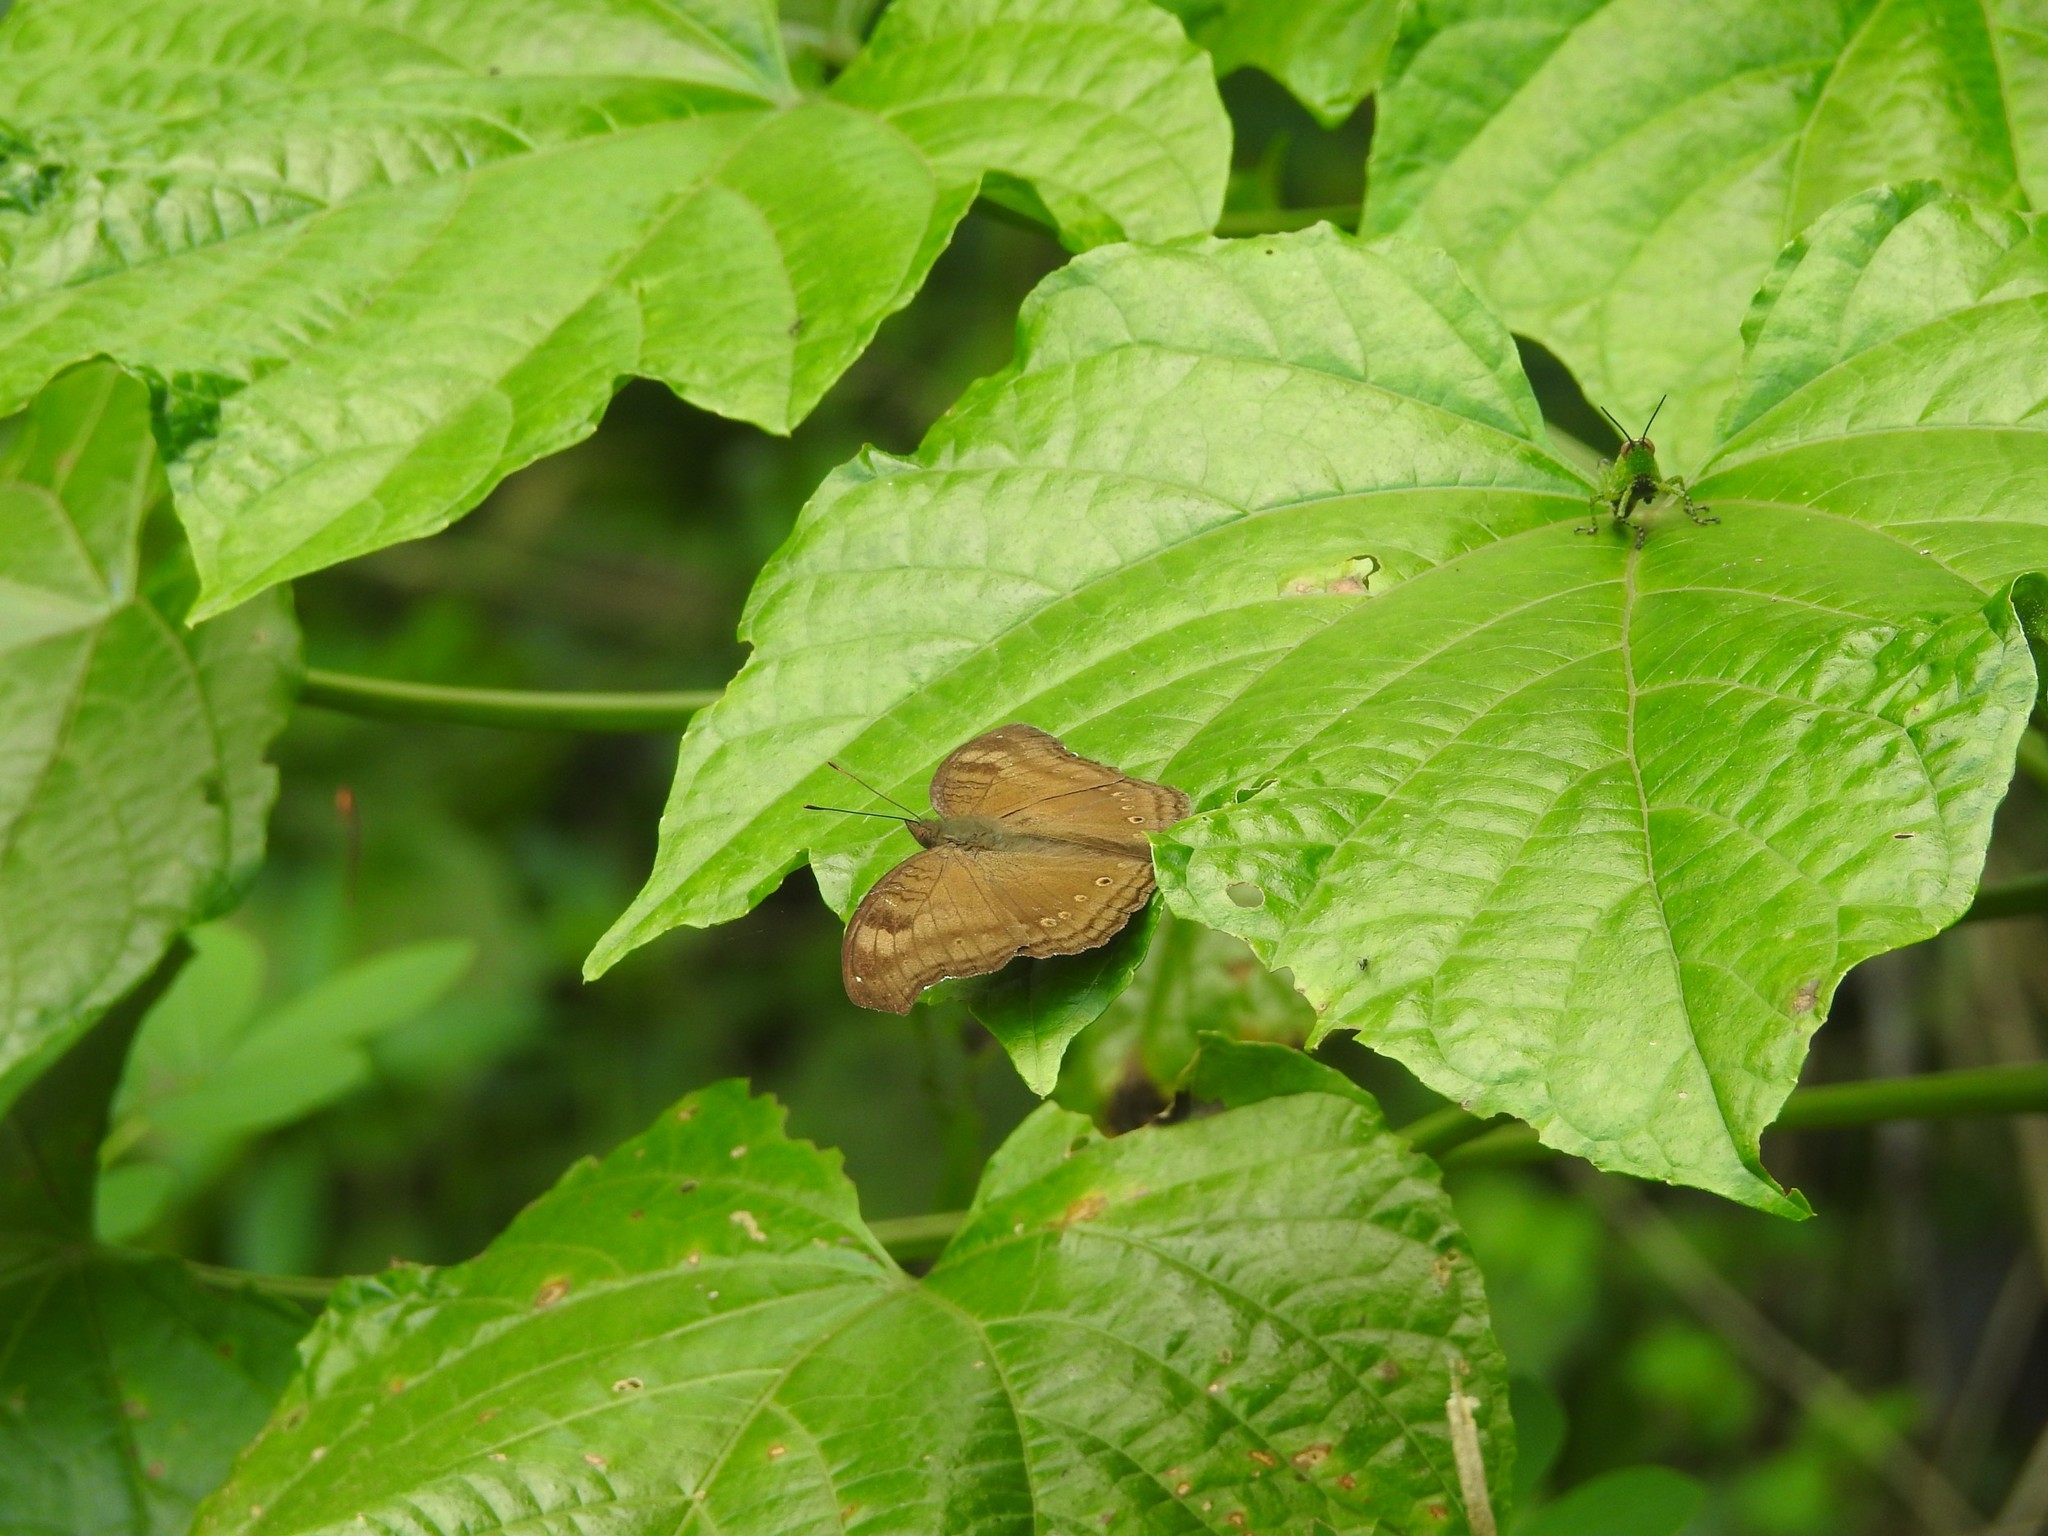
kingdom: Animalia
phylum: Arthropoda
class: Insecta
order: Lepidoptera
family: Nymphalidae
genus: Junonia
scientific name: Junonia iphita
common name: Chocolate pansy
